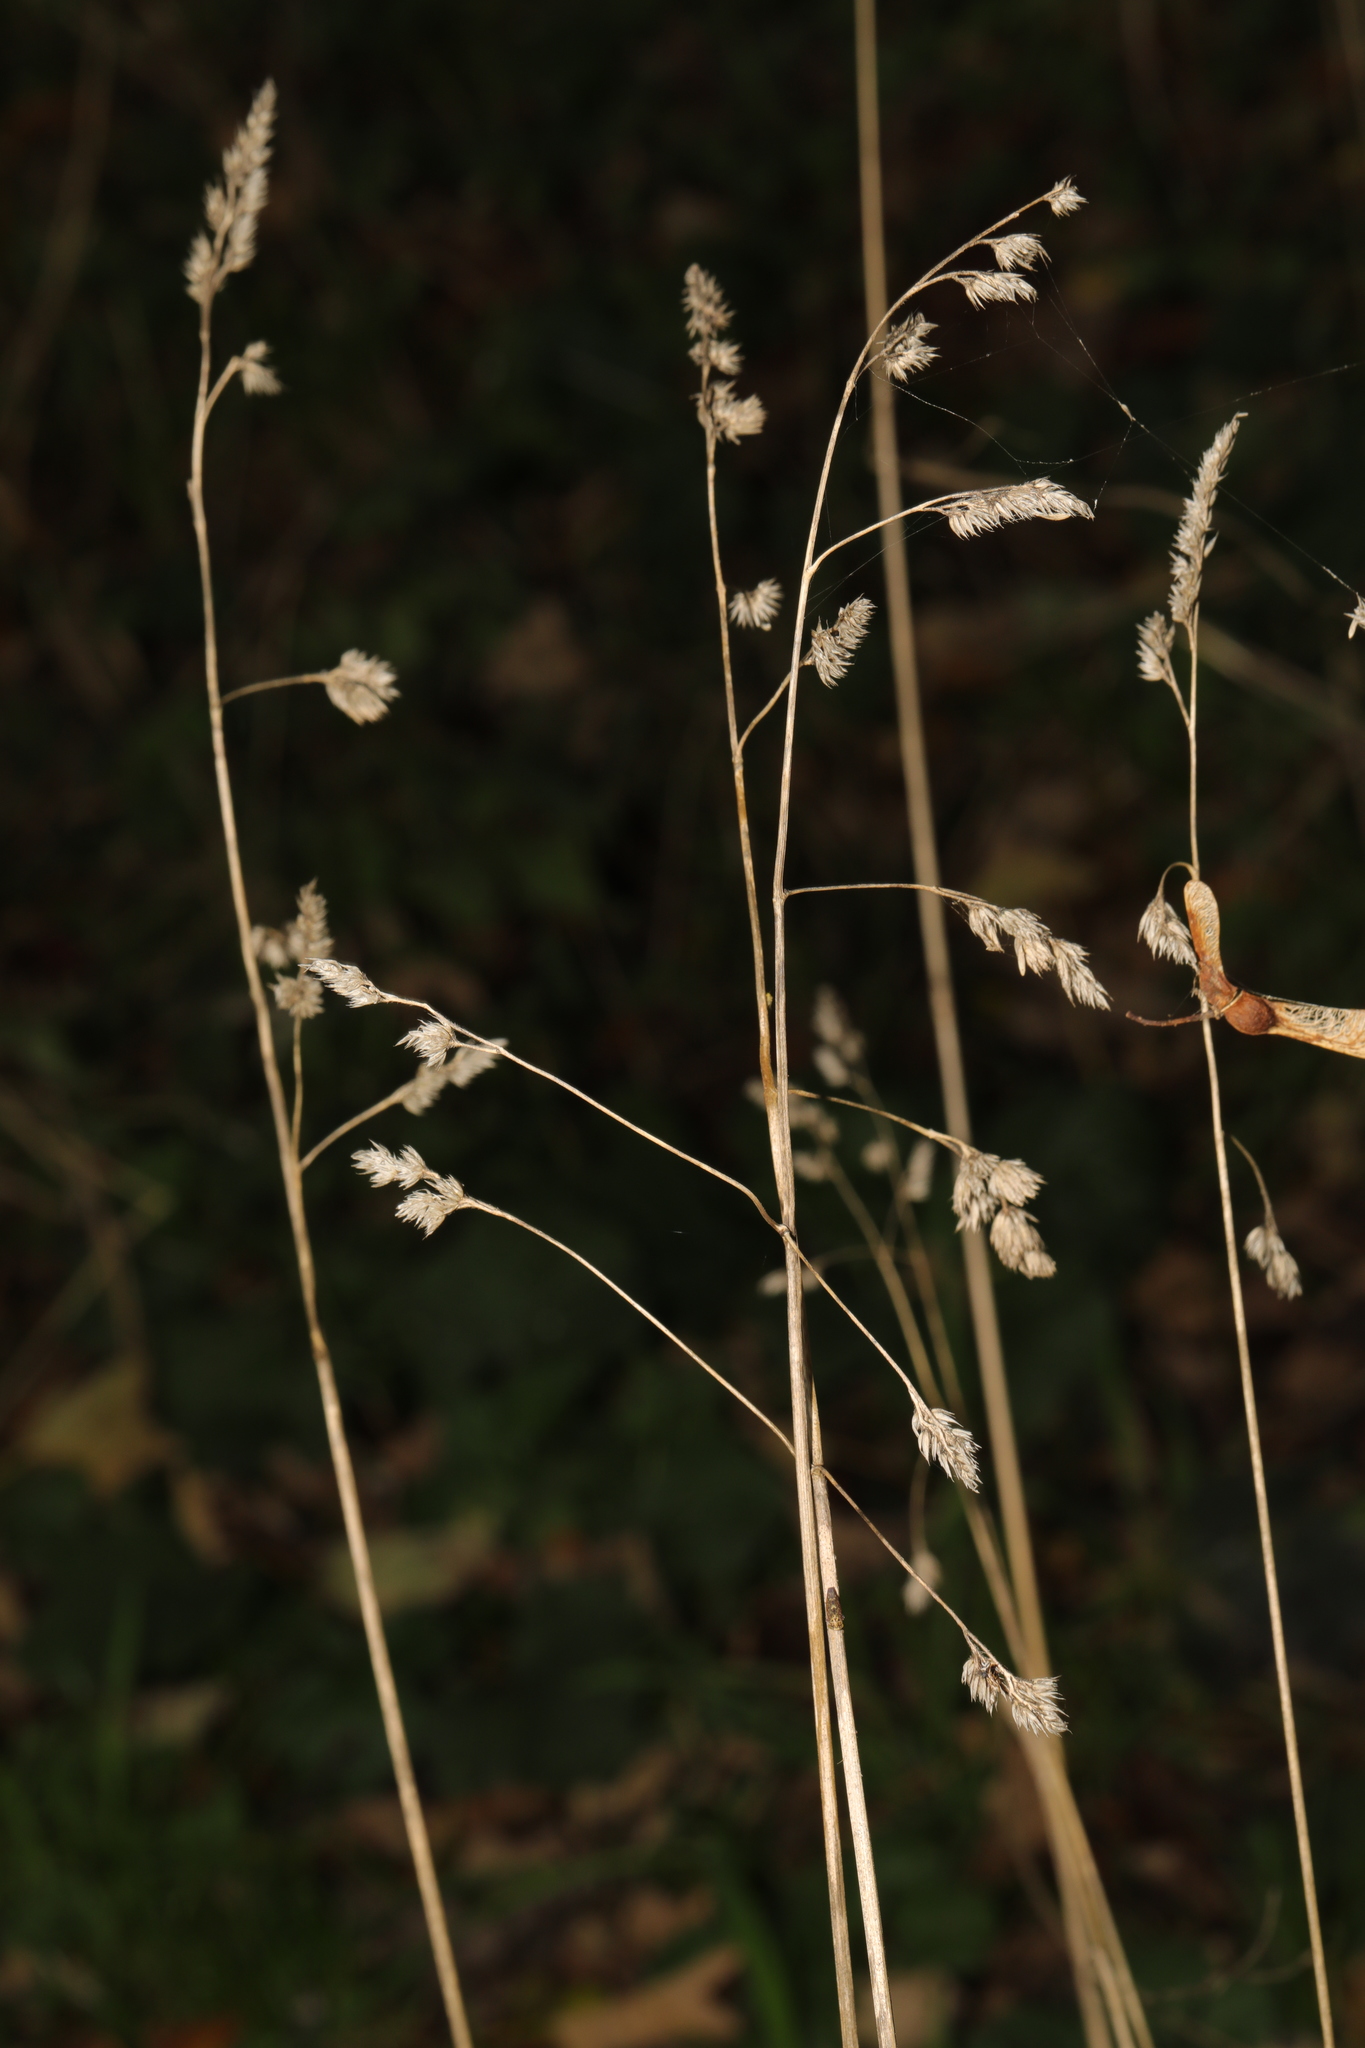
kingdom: Plantae
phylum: Tracheophyta
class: Liliopsida
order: Poales
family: Poaceae
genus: Dactylis
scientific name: Dactylis glomerata
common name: Orchardgrass
